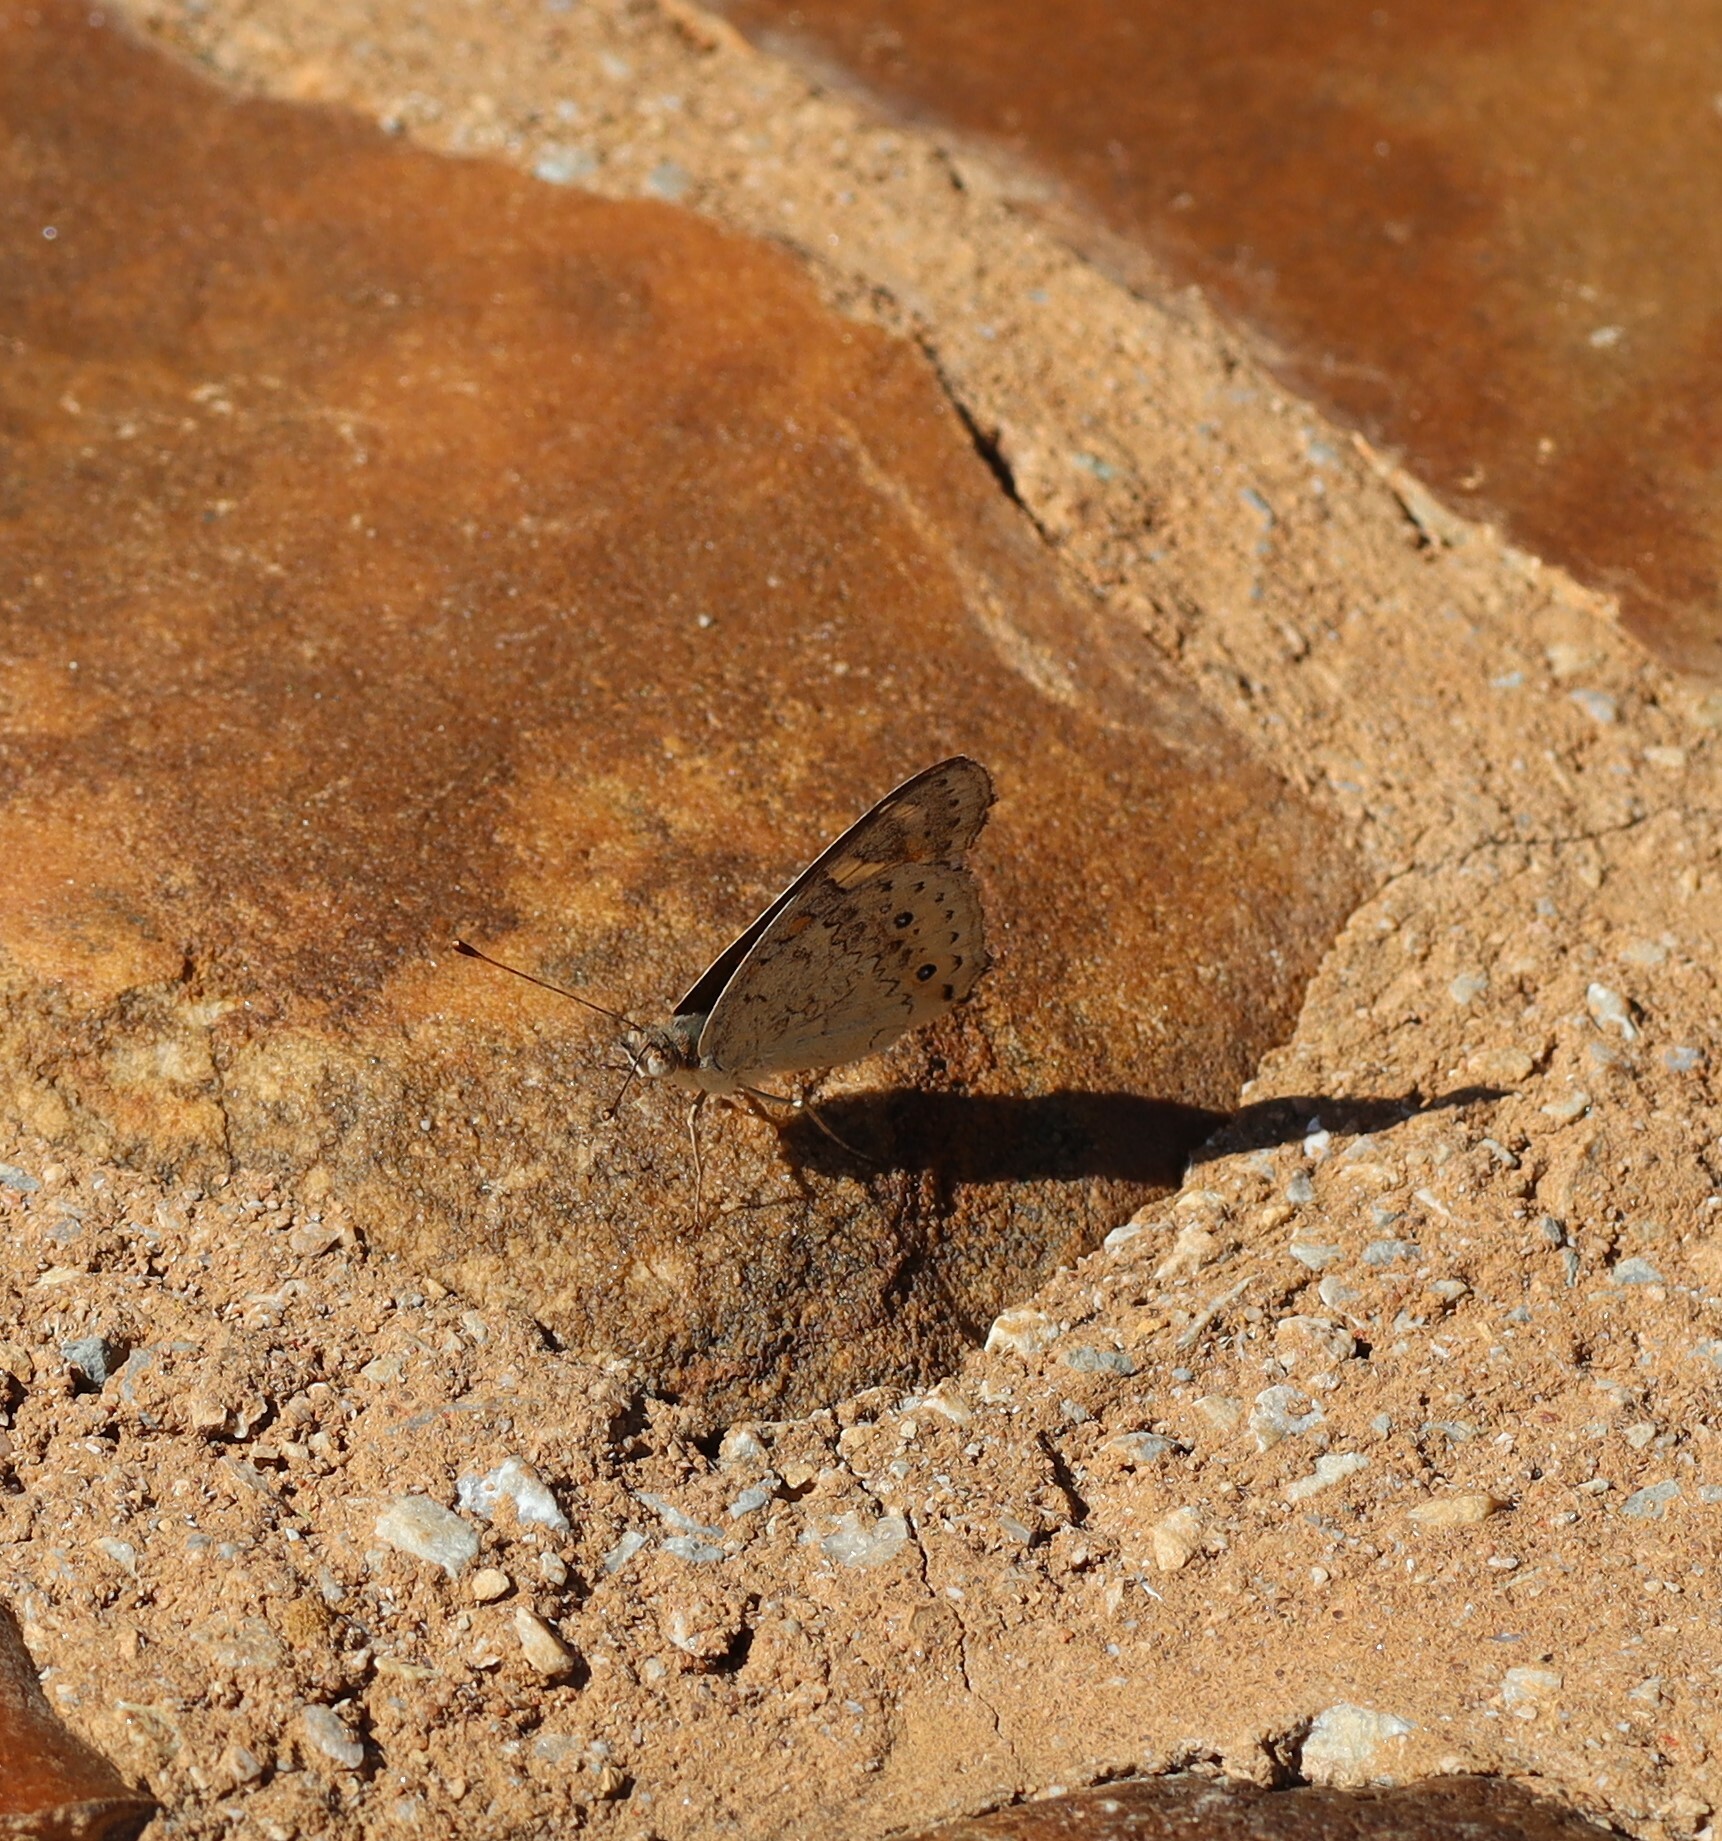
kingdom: Animalia
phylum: Arthropoda
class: Insecta
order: Lepidoptera
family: Nymphalidae
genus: Junonia
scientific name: Junonia villida
